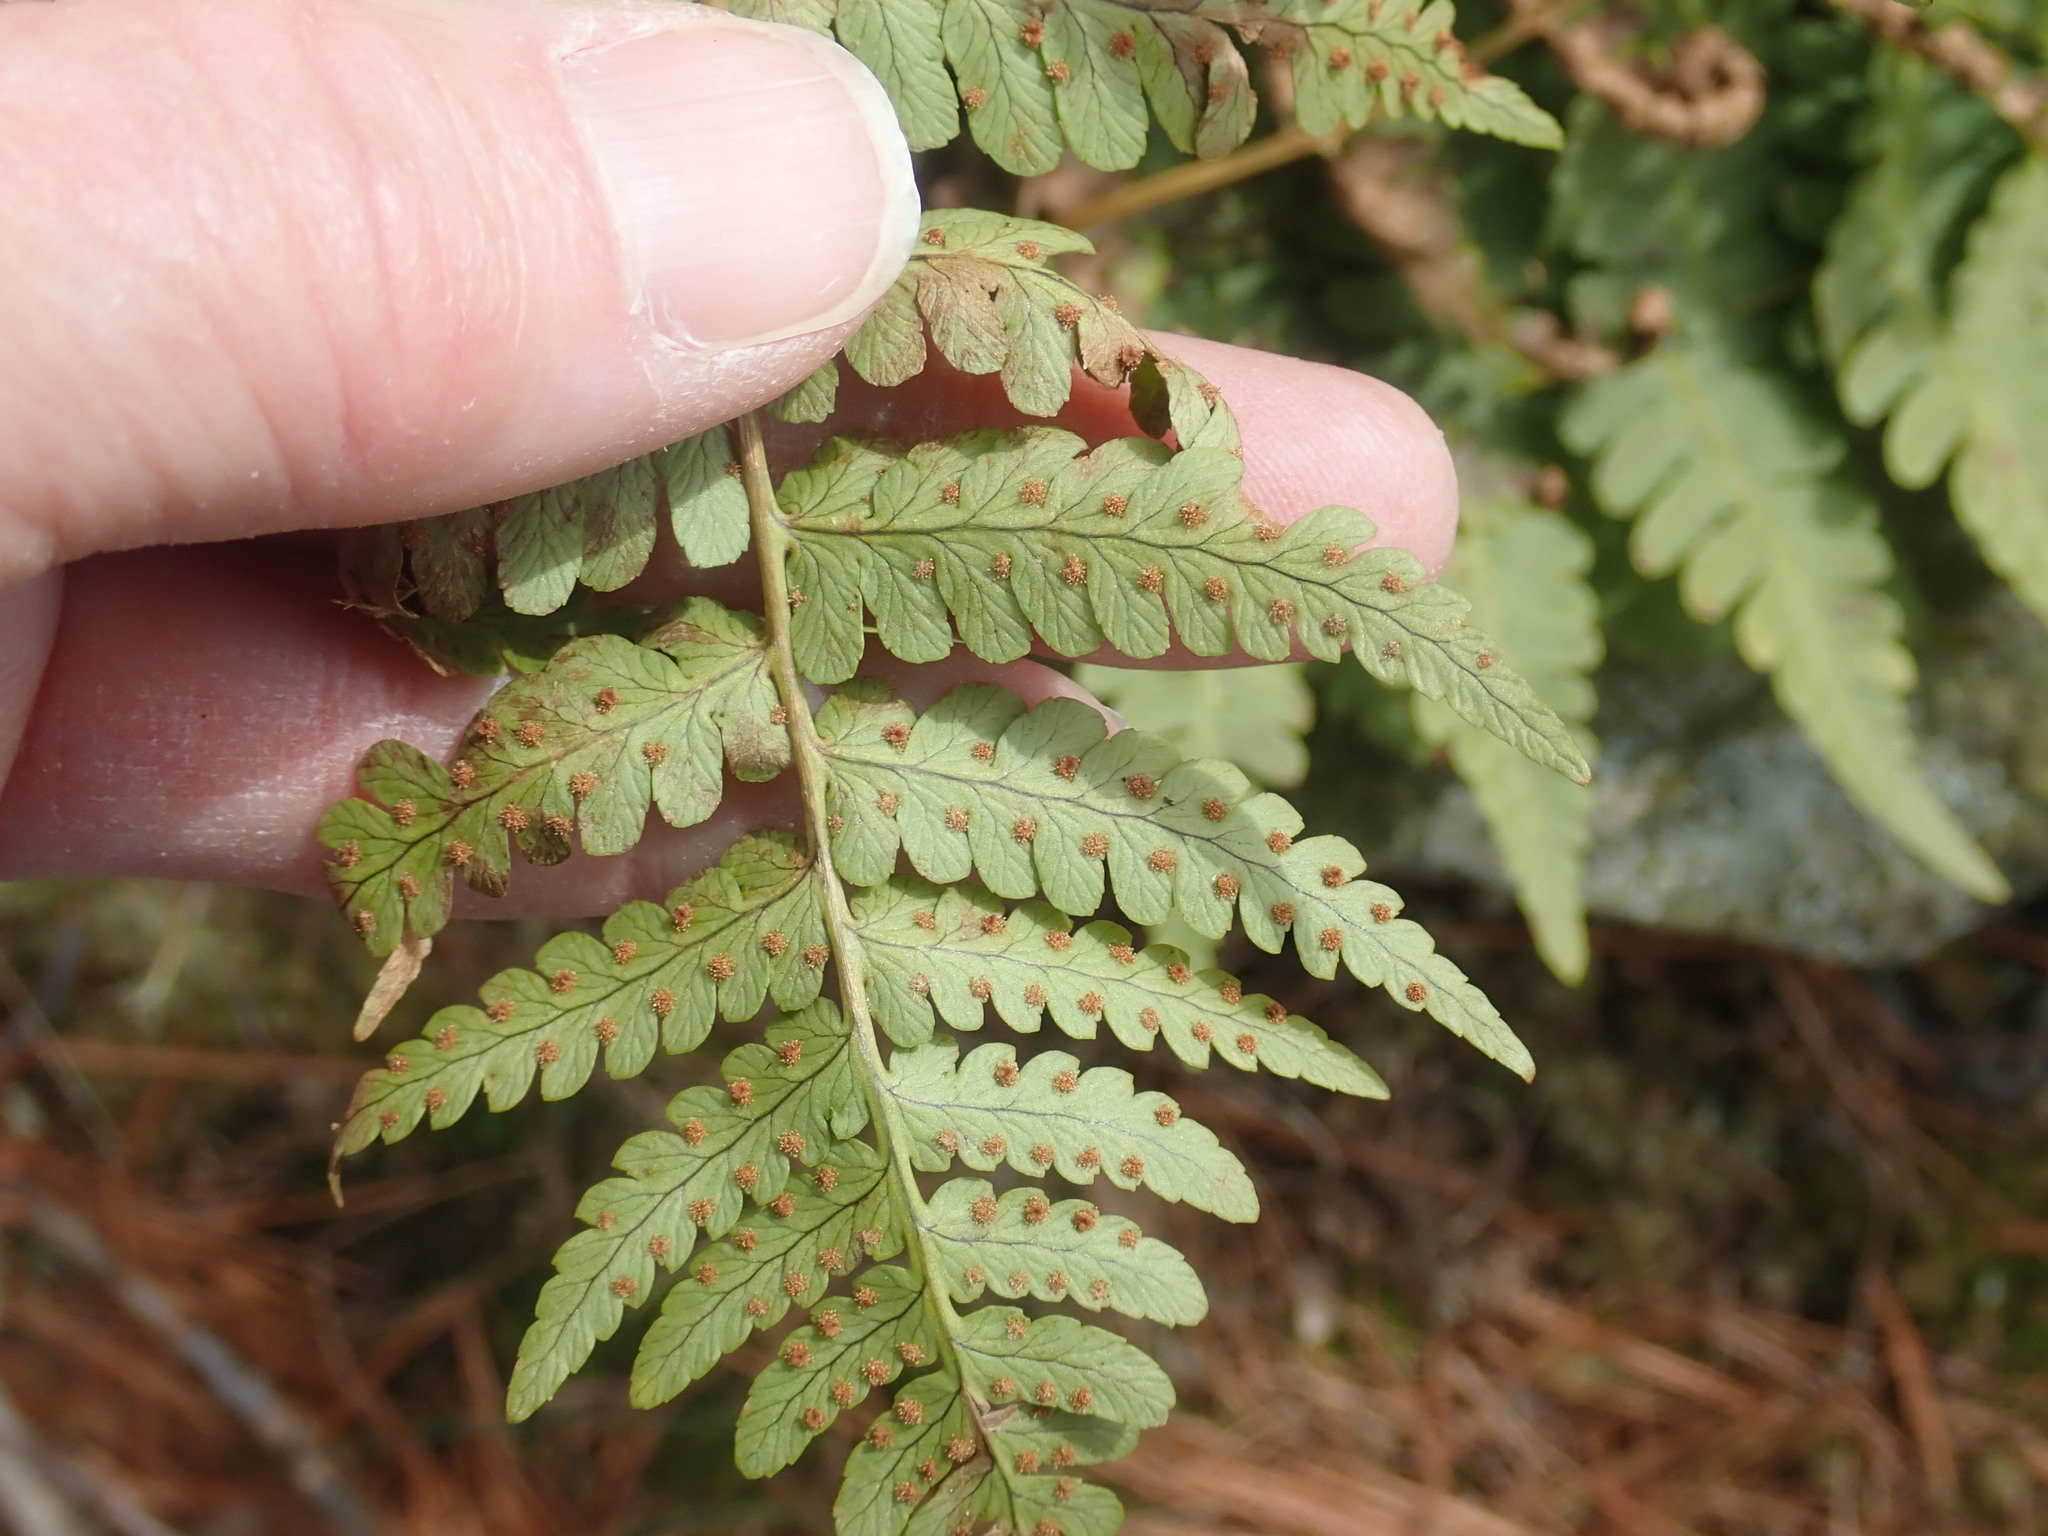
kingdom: Plantae
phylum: Tracheophyta
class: Polypodiopsida
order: Polypodiales
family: Dryopteridaceae
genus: Dryopteris
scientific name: Dryopteris marginalis
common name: Marginal wood fern
